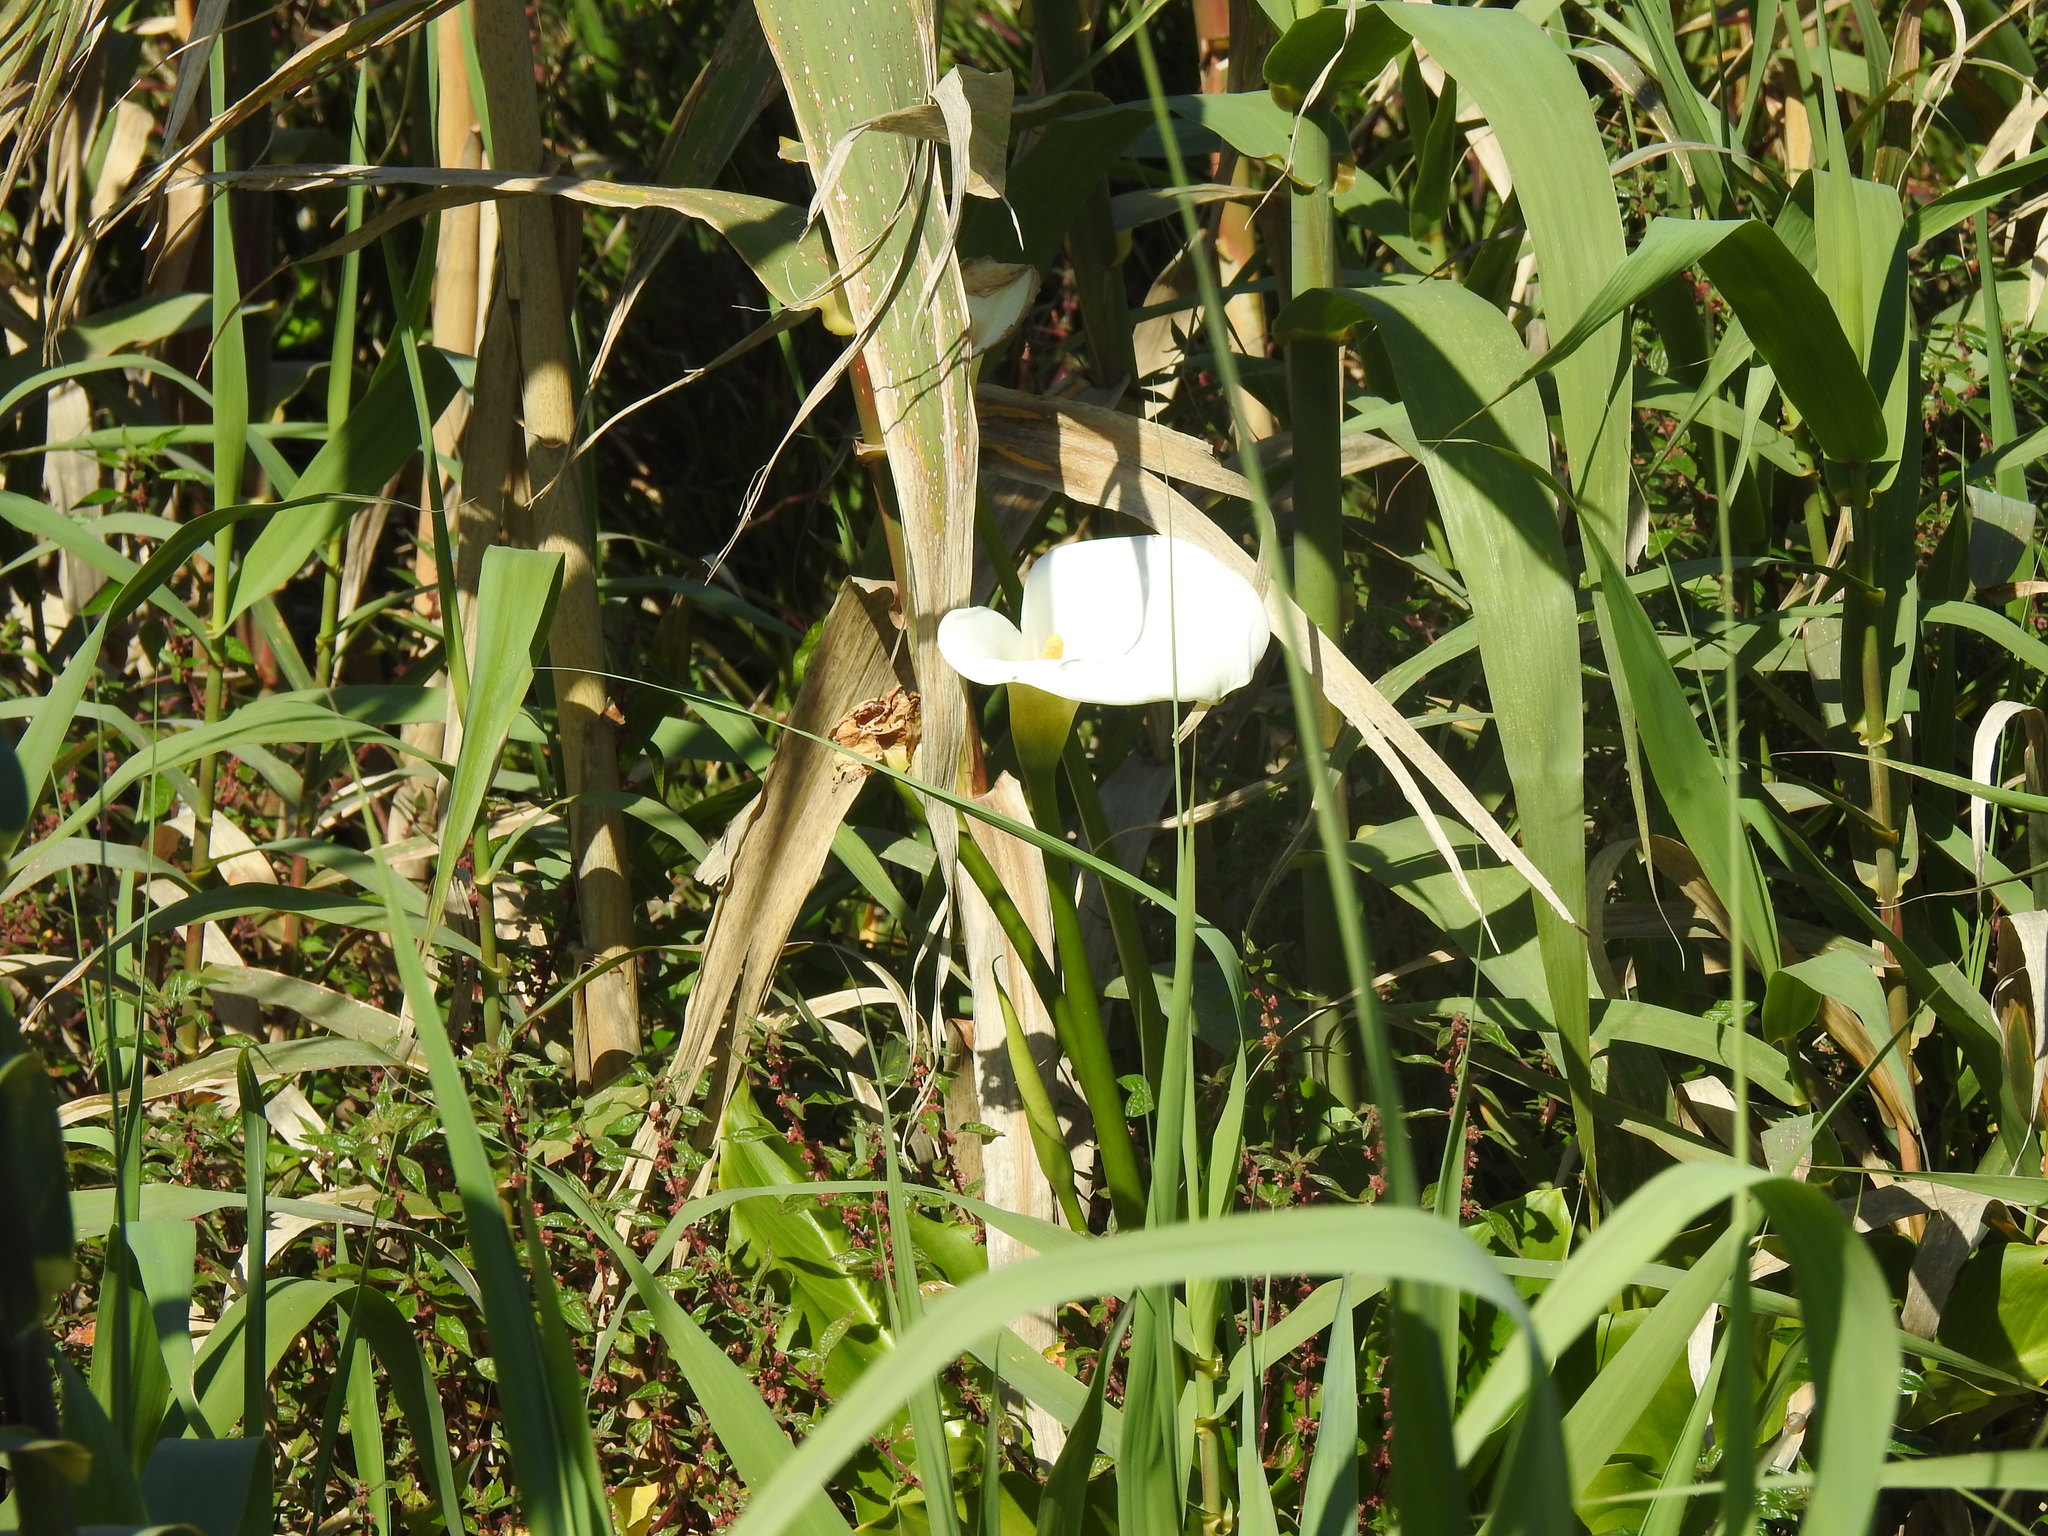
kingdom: Plantae
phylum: Tracheophyta
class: Liliopsida
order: Alismatales
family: Araceae
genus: Zantedeschia
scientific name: Zantedeschia aethiopica
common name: Altar-lily
